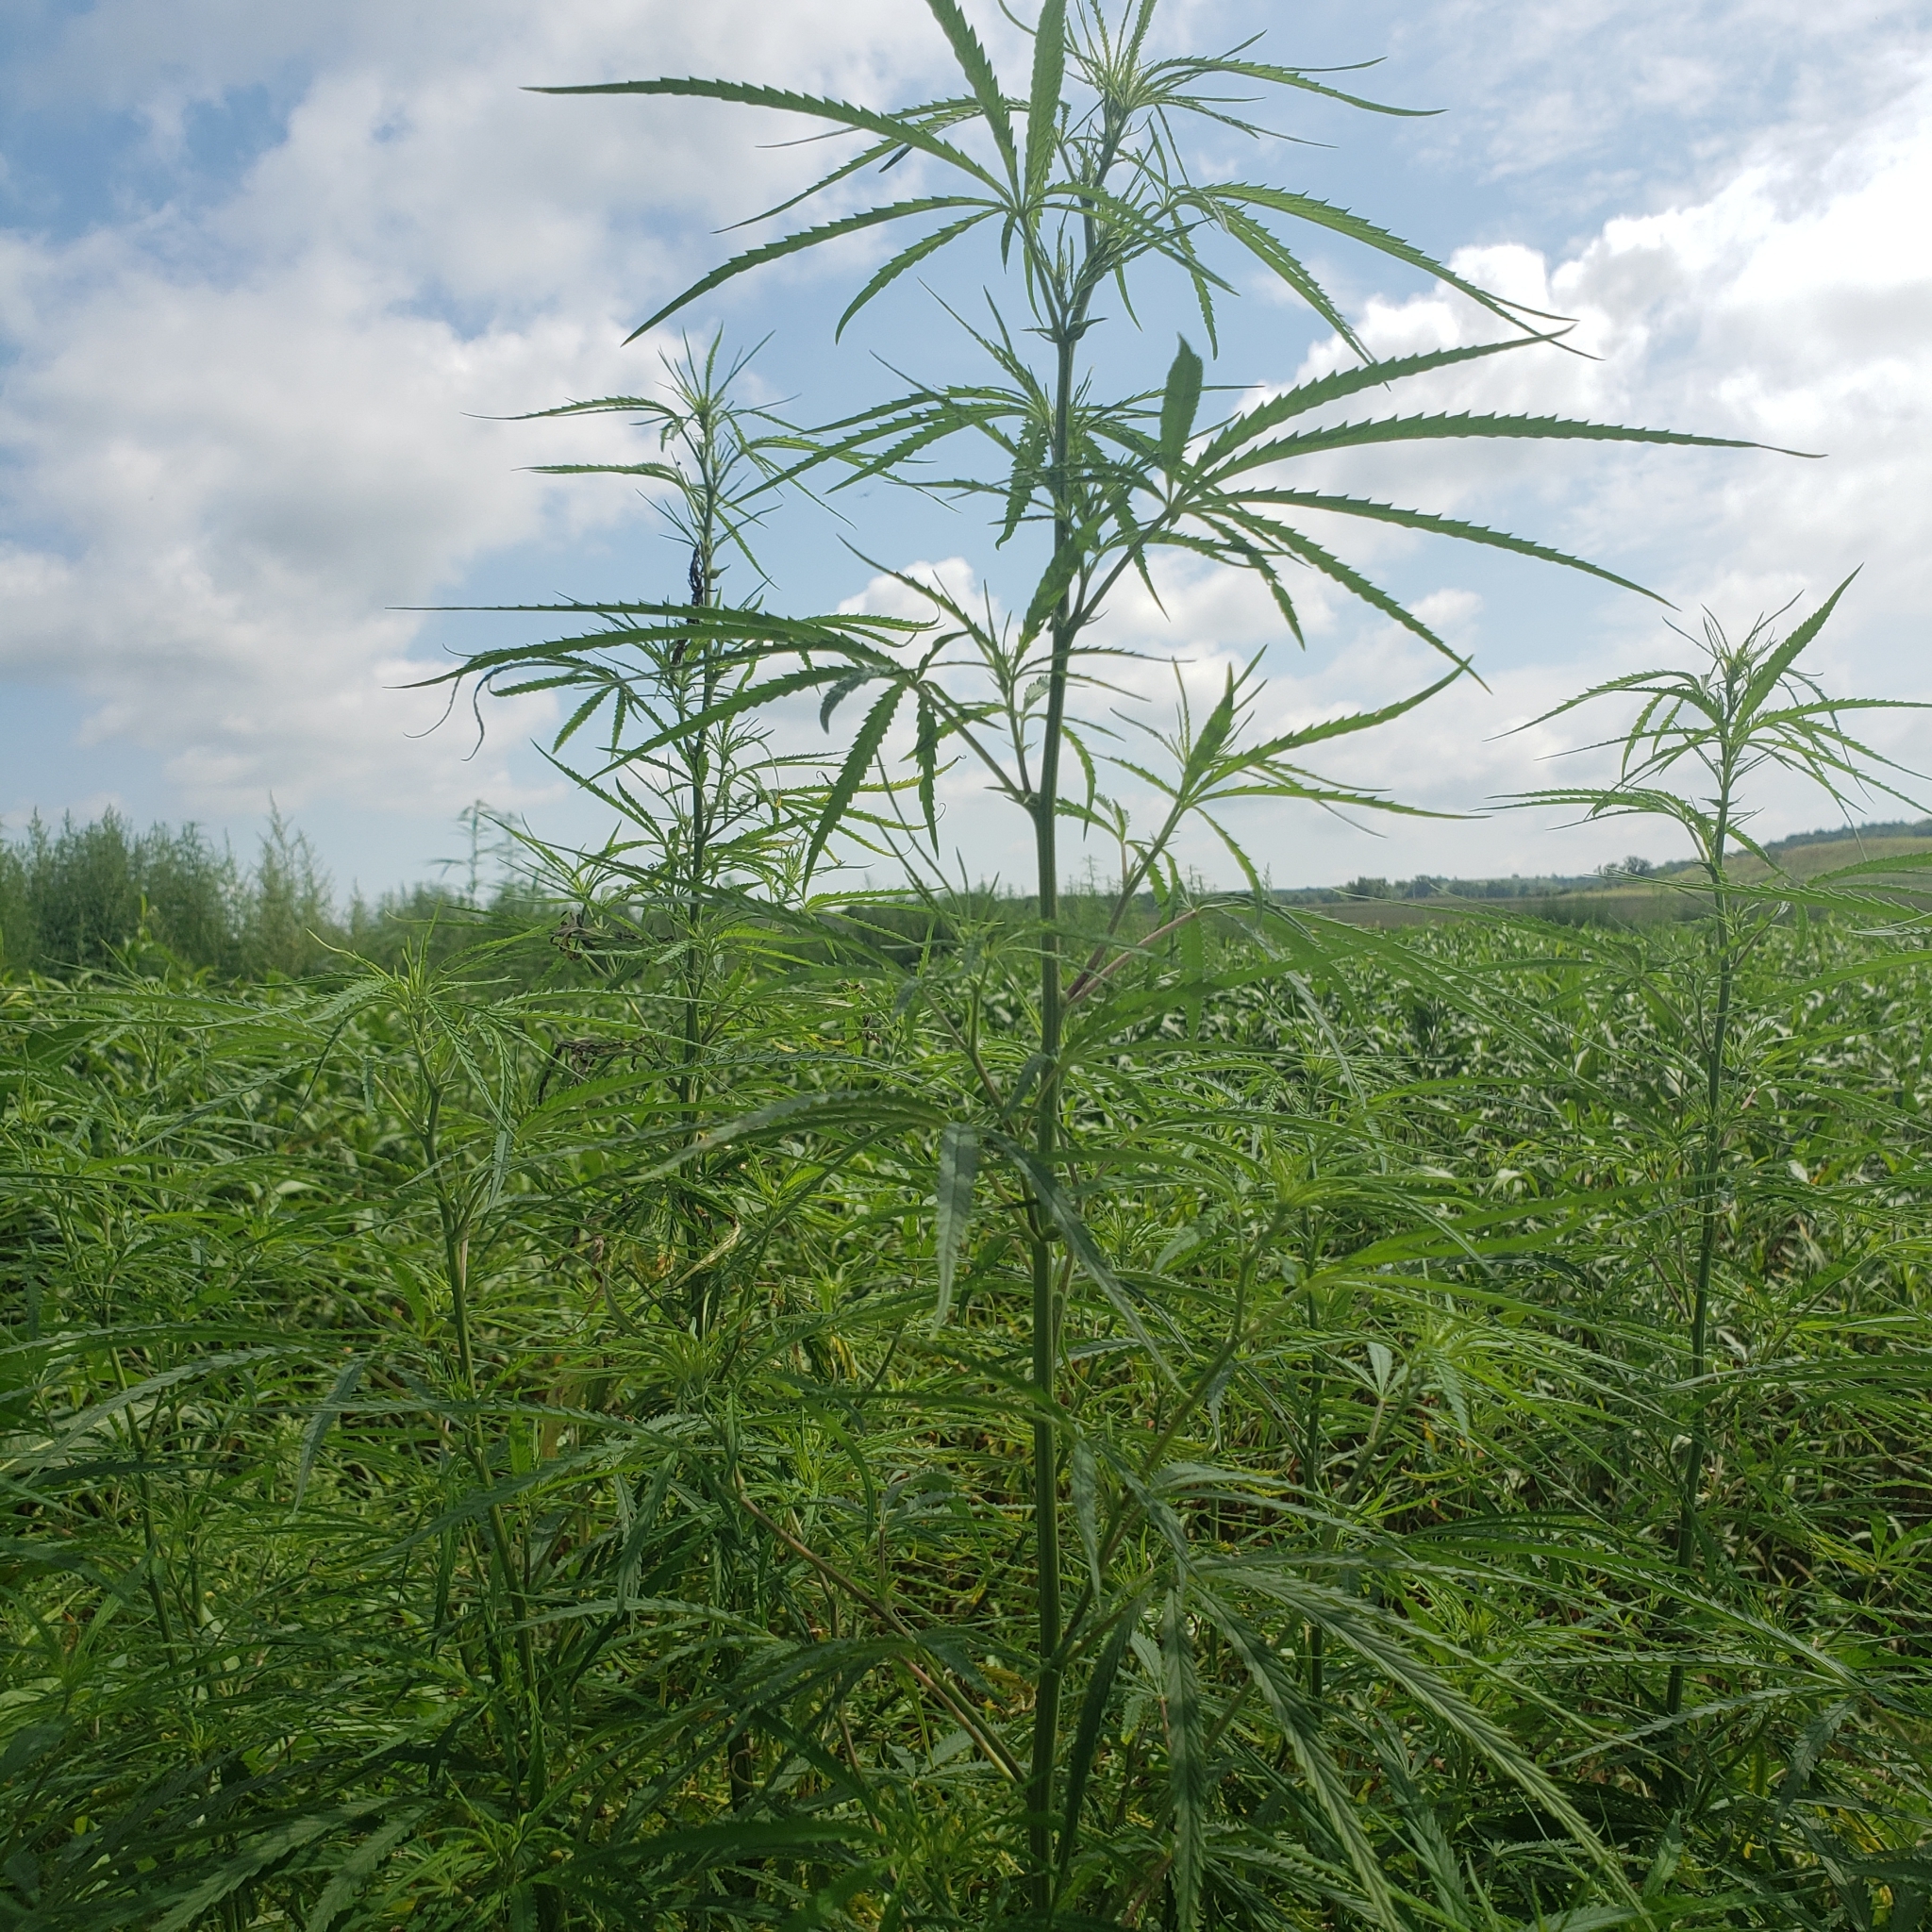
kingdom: Plantae
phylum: Tracheophyta
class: Magnoliopsida
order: Rosales
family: Cannabaceae
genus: Cannabis
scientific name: Cannabis sativa
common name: Hemp
